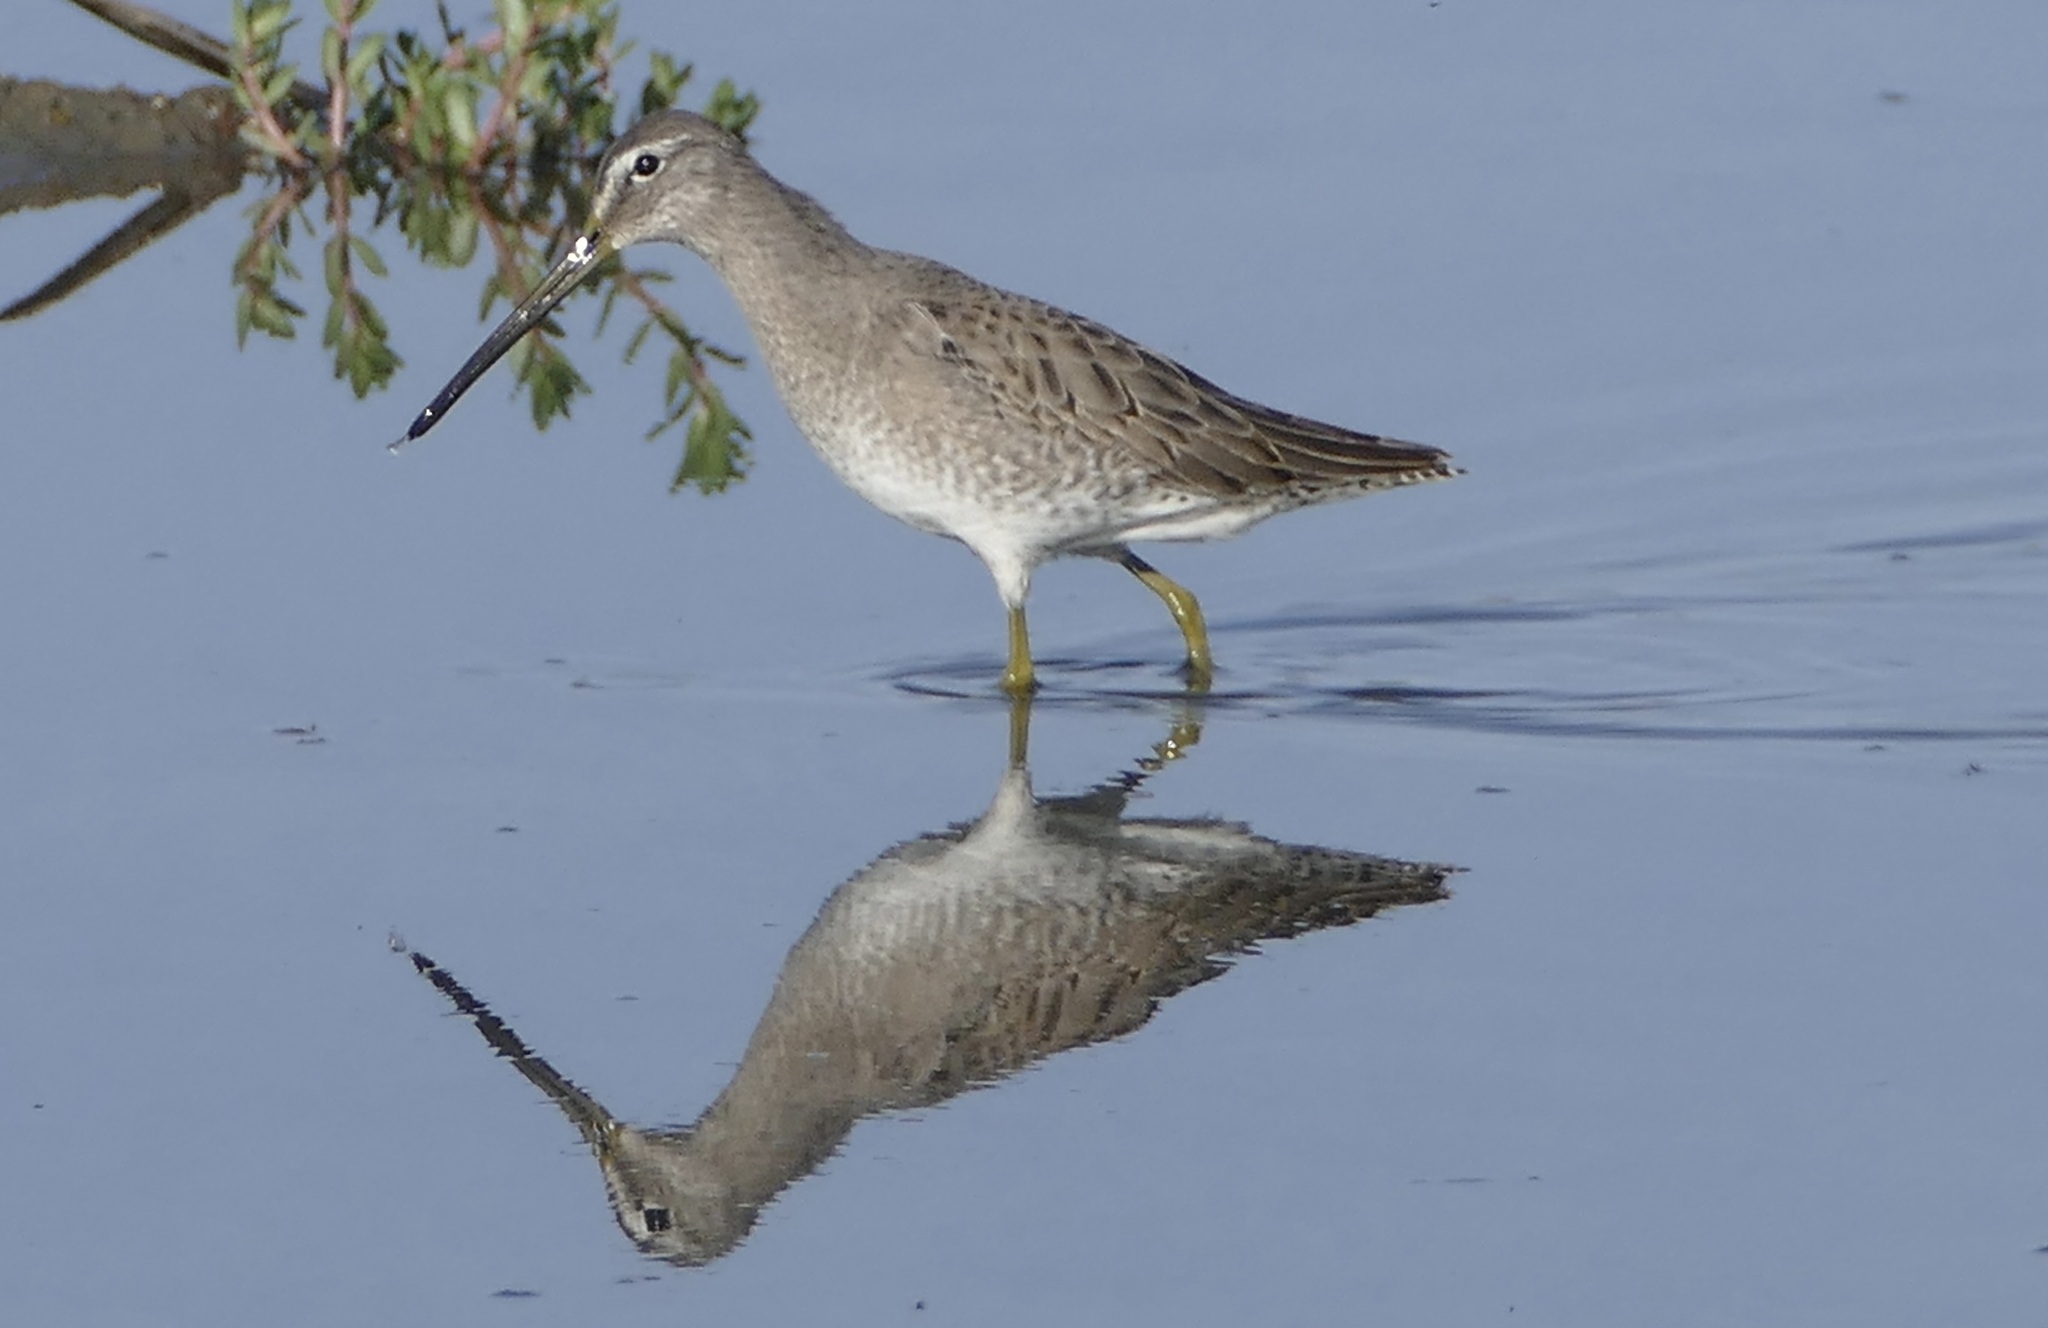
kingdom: Animalia
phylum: Chordata
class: Aves
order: Charadriiformes
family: Scolopacidae
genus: Limnodromus
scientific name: Limnodromus scolopaceus
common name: Long-billed dowitcher
